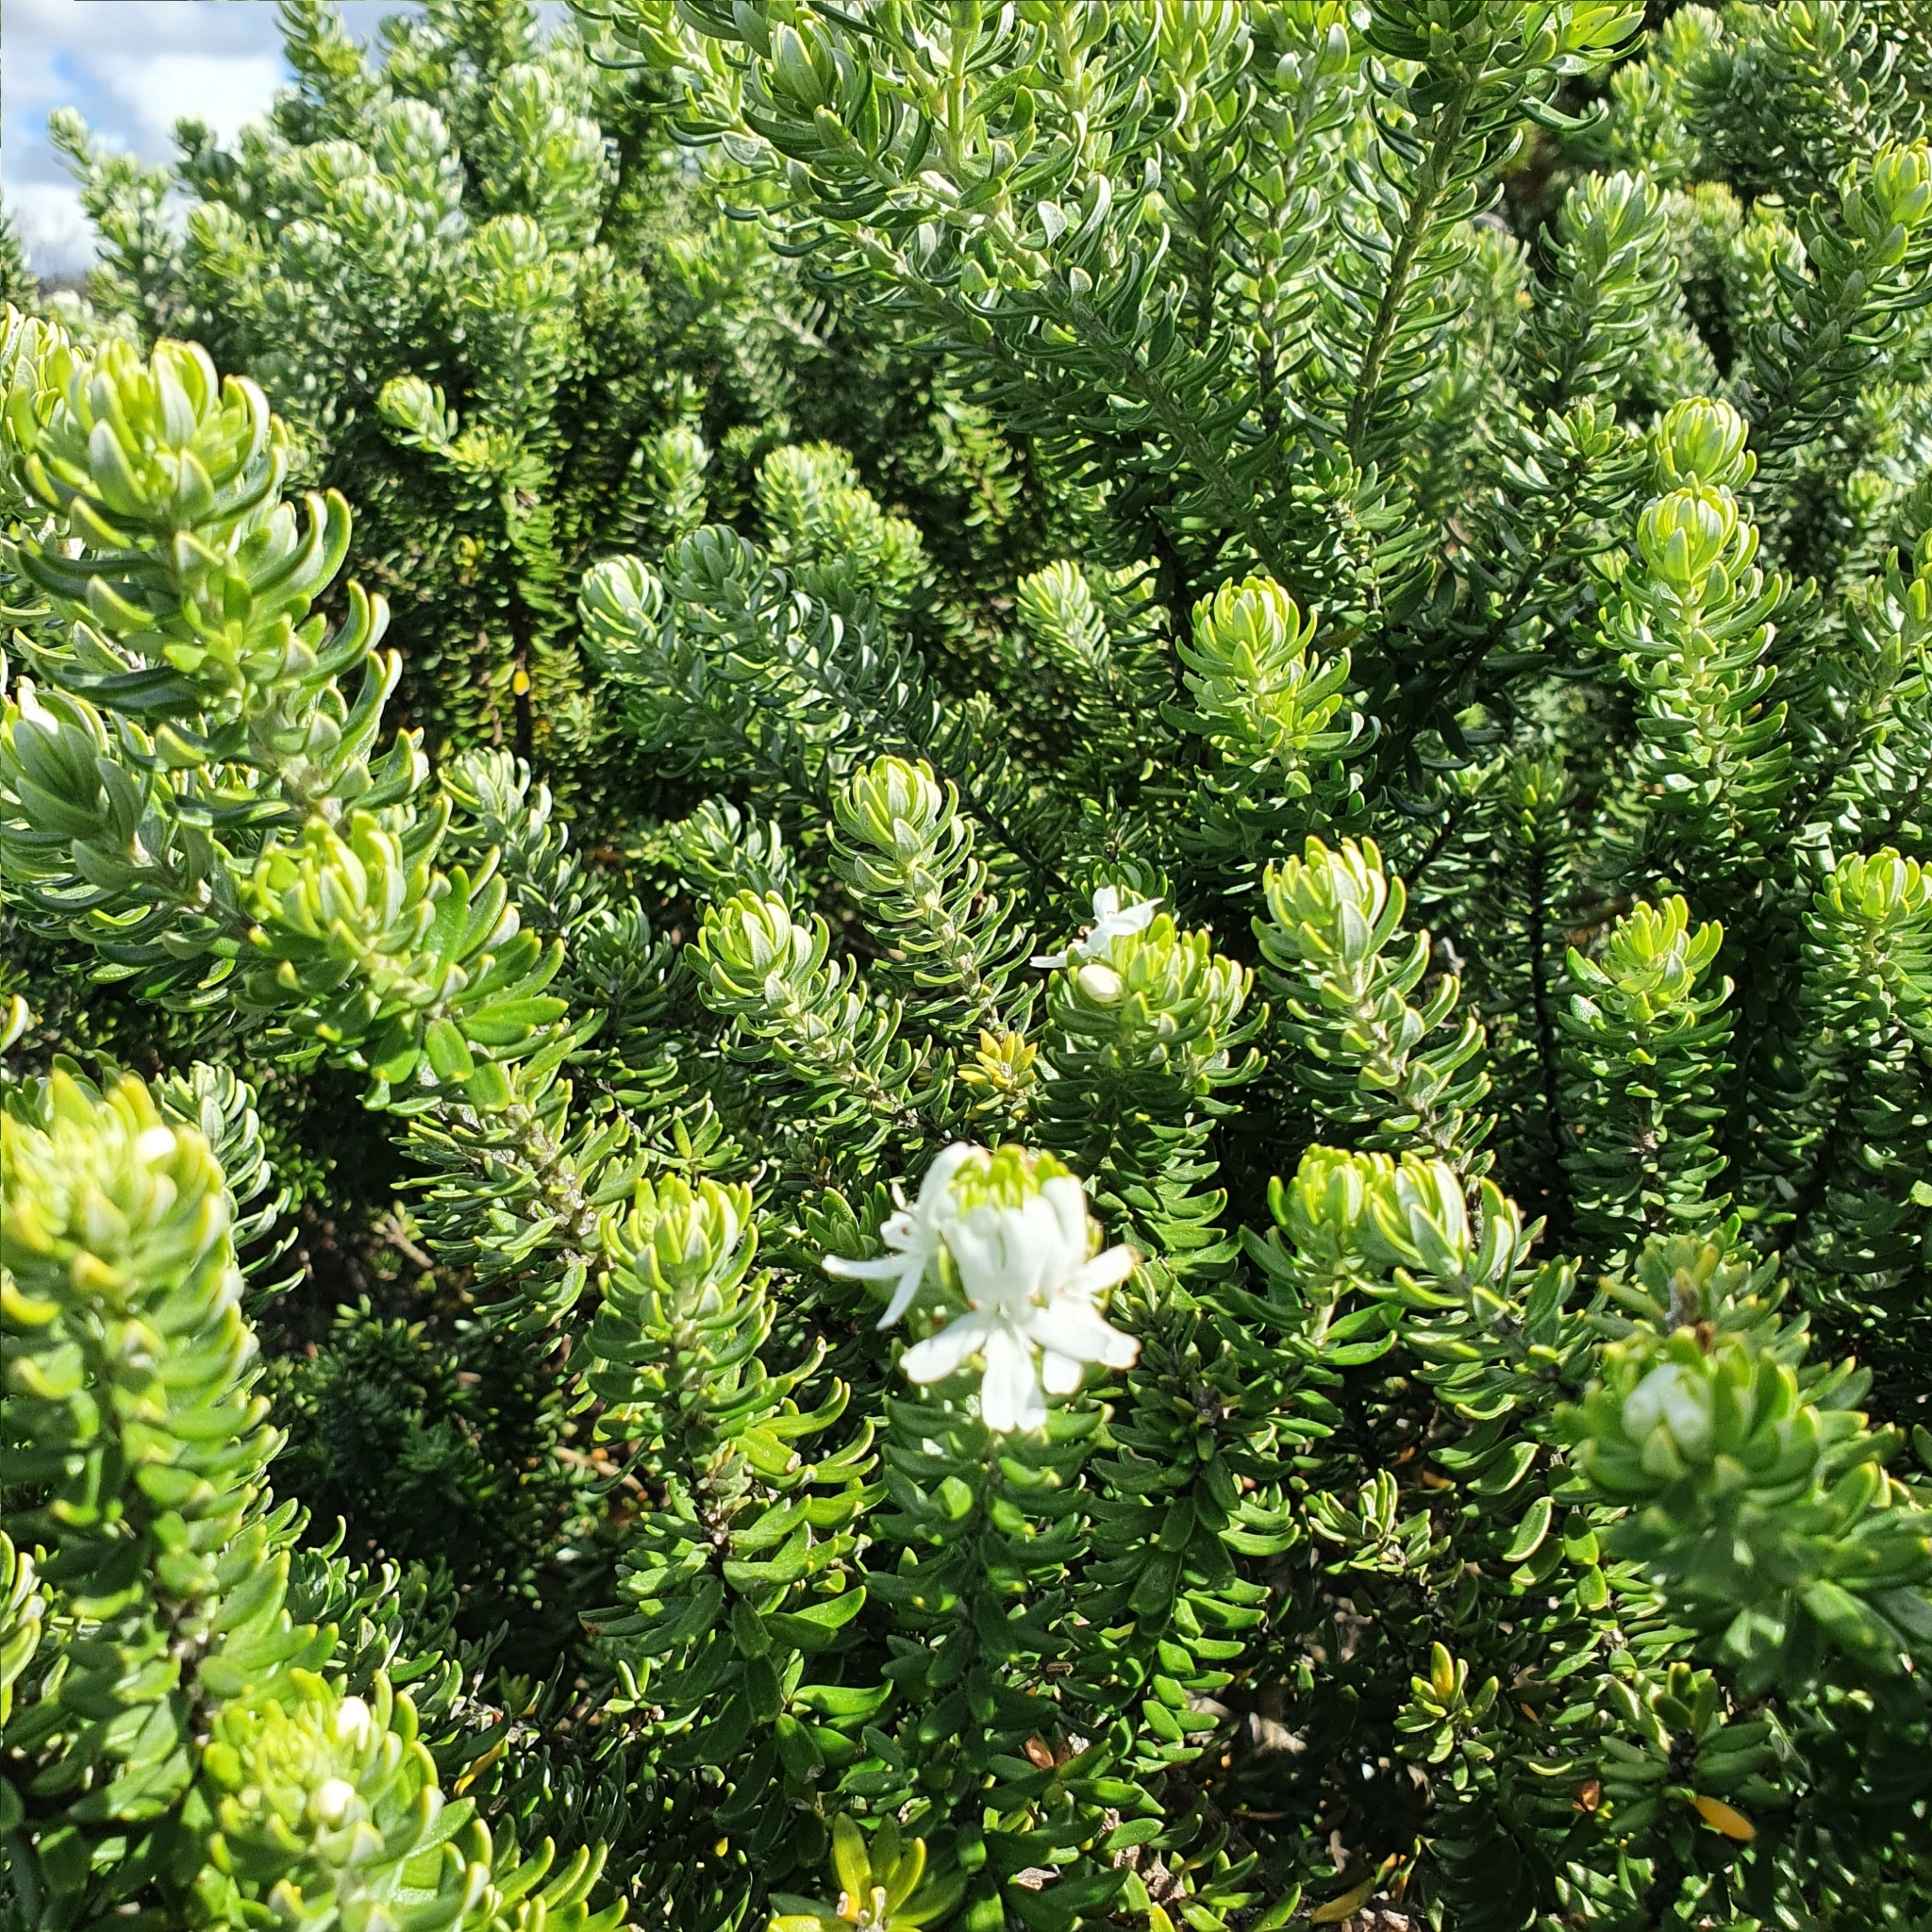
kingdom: Plantae
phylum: Tracheophyta
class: Magnoliopsida
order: Lamiales
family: Lamiaceae
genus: Westringia
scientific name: Westringia fruticosa
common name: Coastal-rosemary
